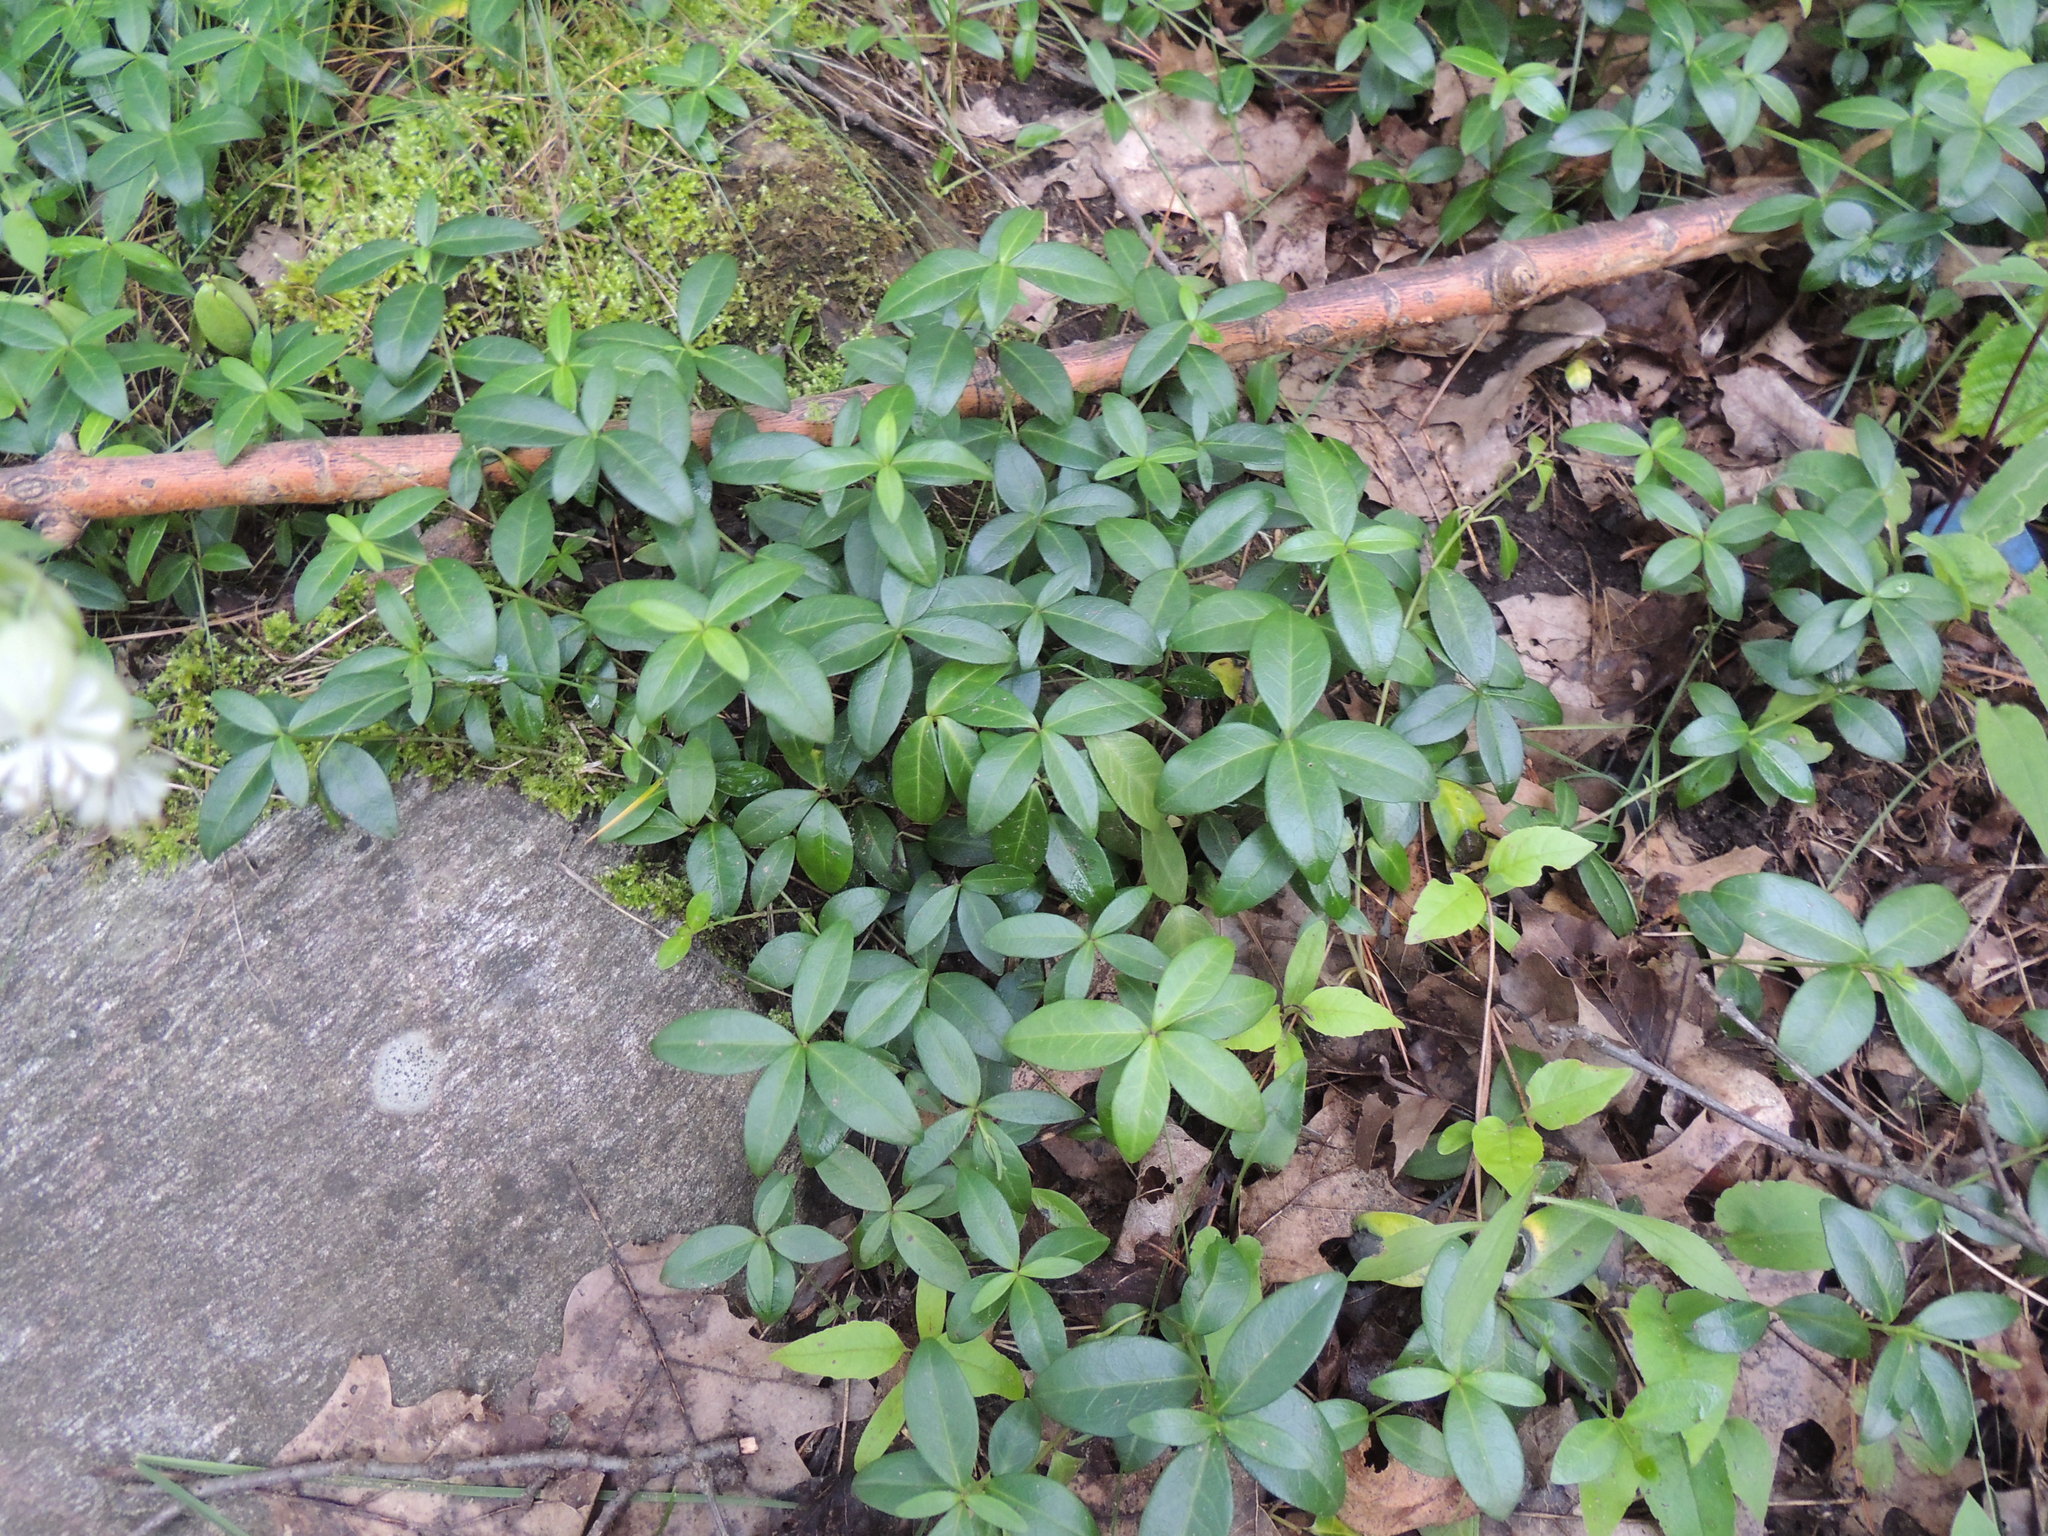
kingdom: Plantae
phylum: Tracheophyta
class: Magnoliopsida
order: Gentianales
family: Apocynaceae
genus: Vinca
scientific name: Vinca minor
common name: Lesser periwinkle
